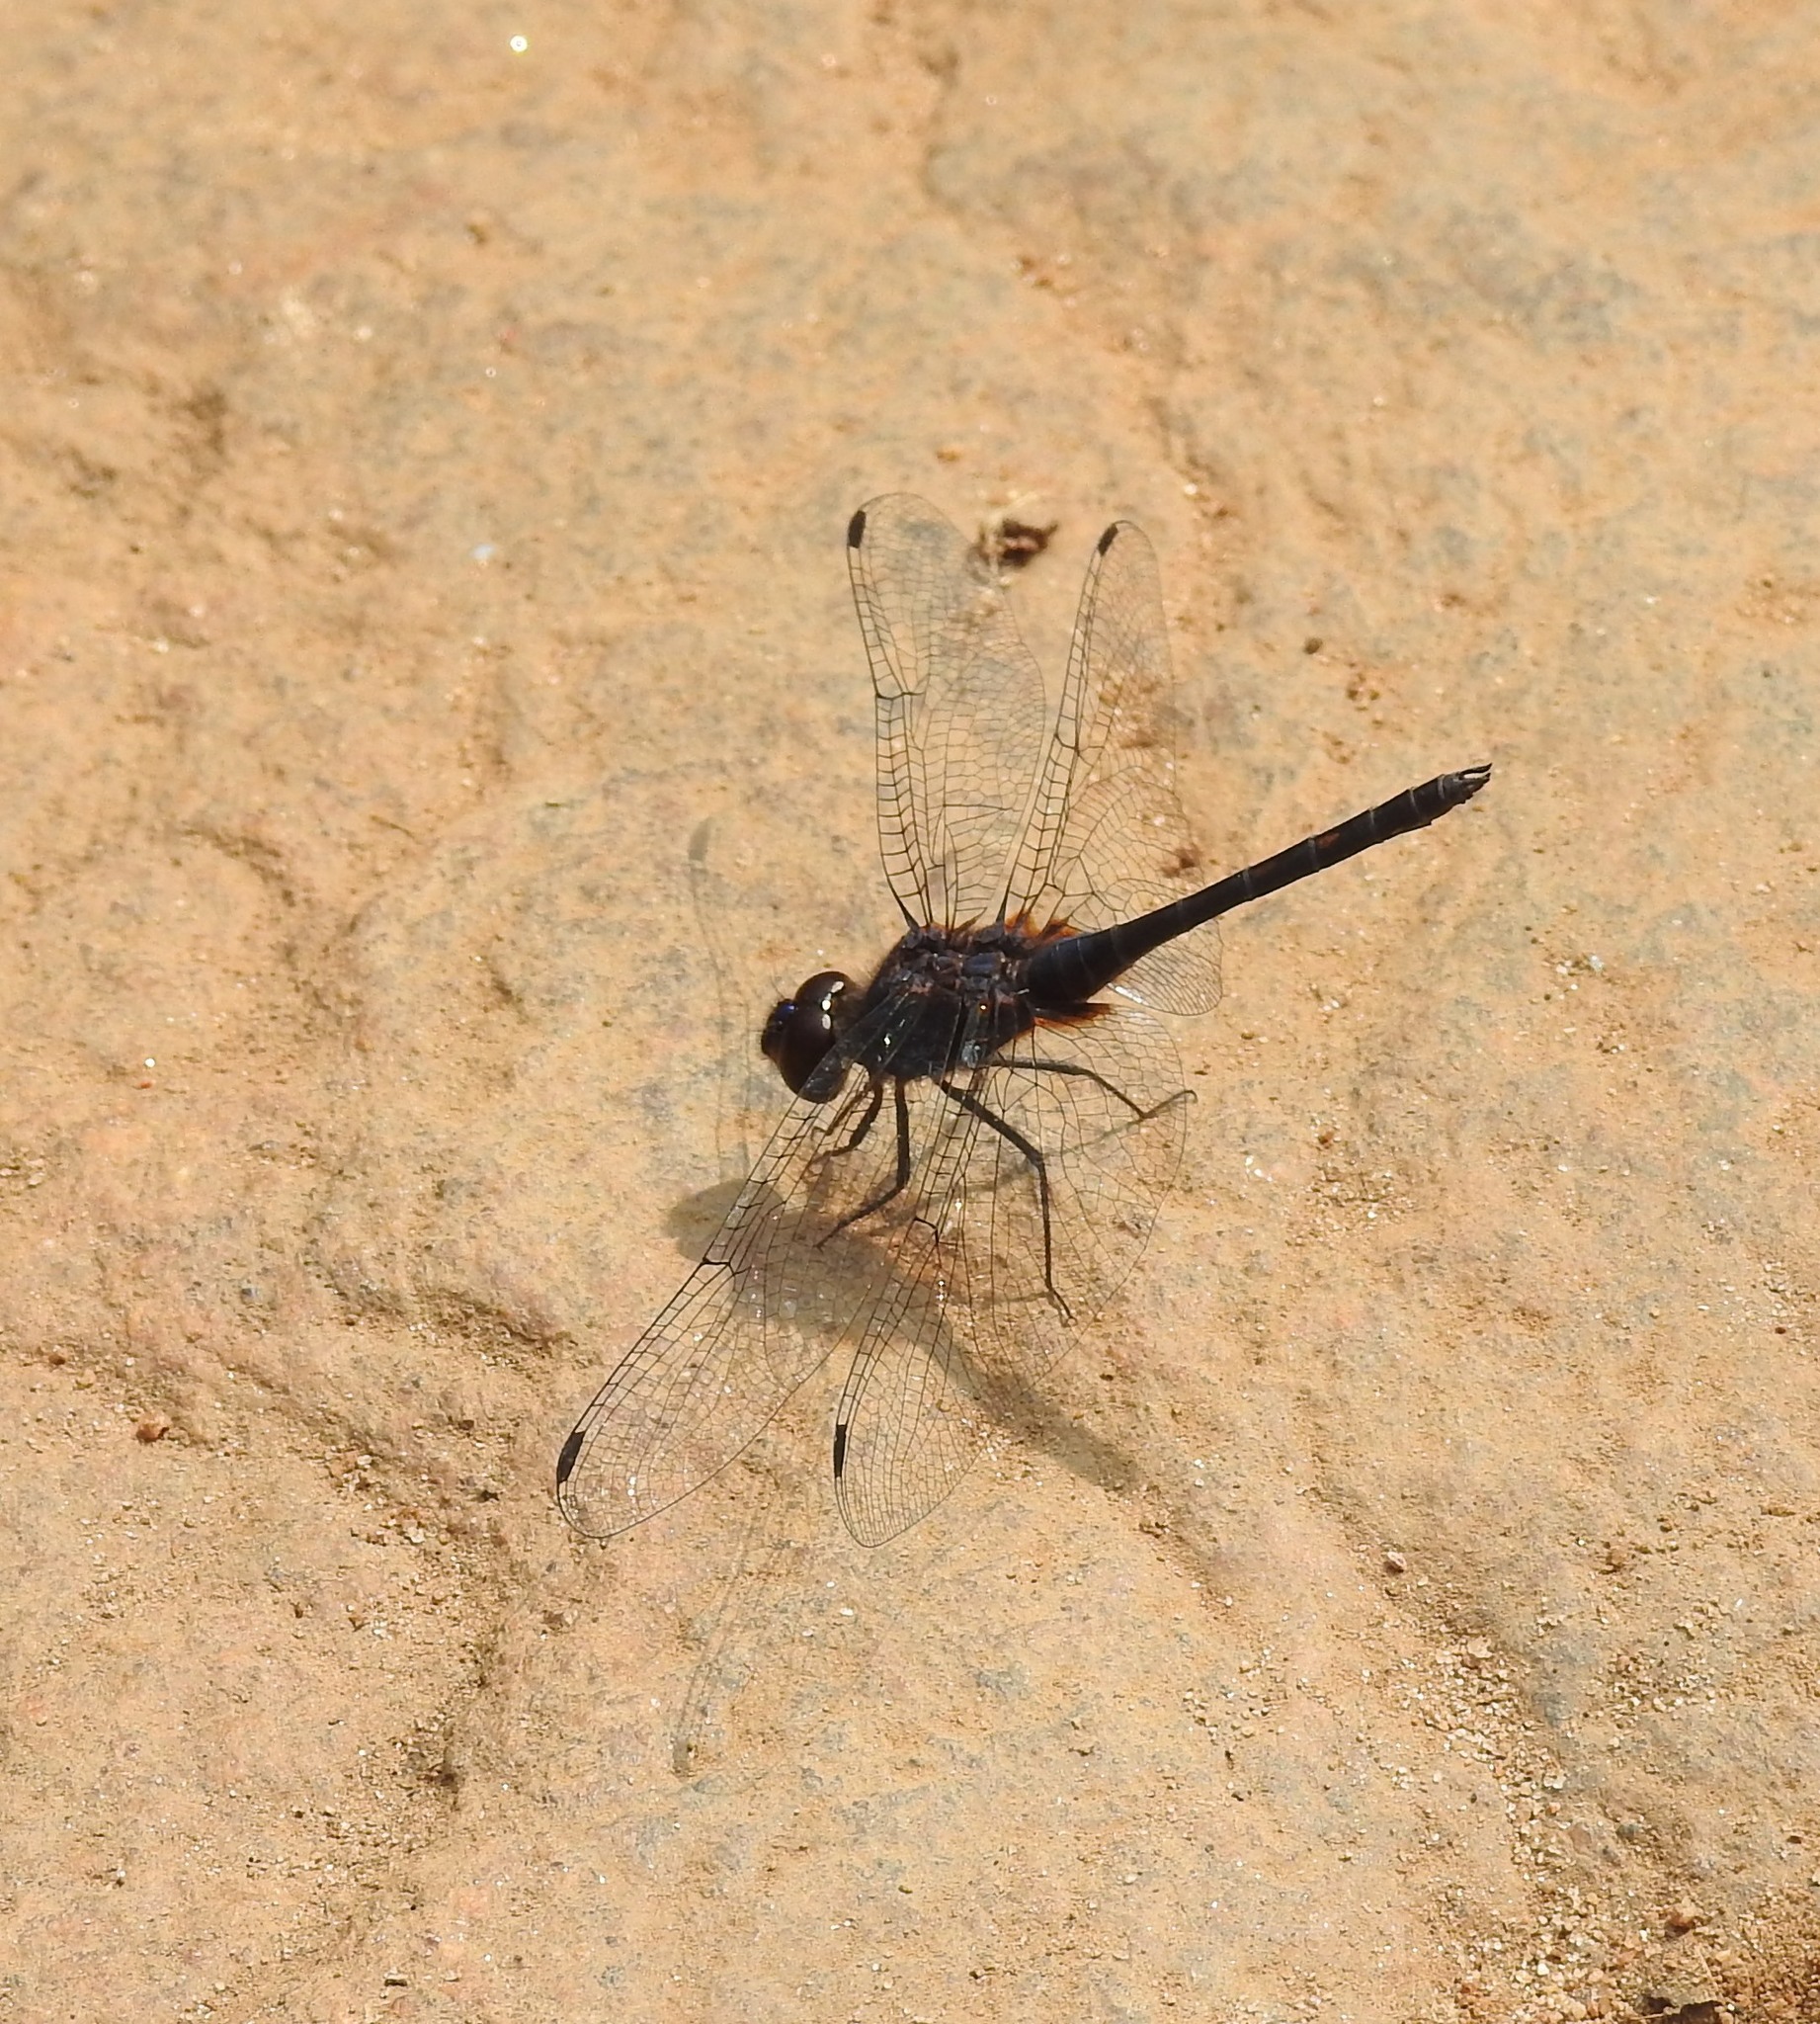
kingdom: Animalia
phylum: Arthropoda
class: Insecta
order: Odonata
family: Libellulidae
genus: Trithemis
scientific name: Trithemis festiva
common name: Indigo dropwing
